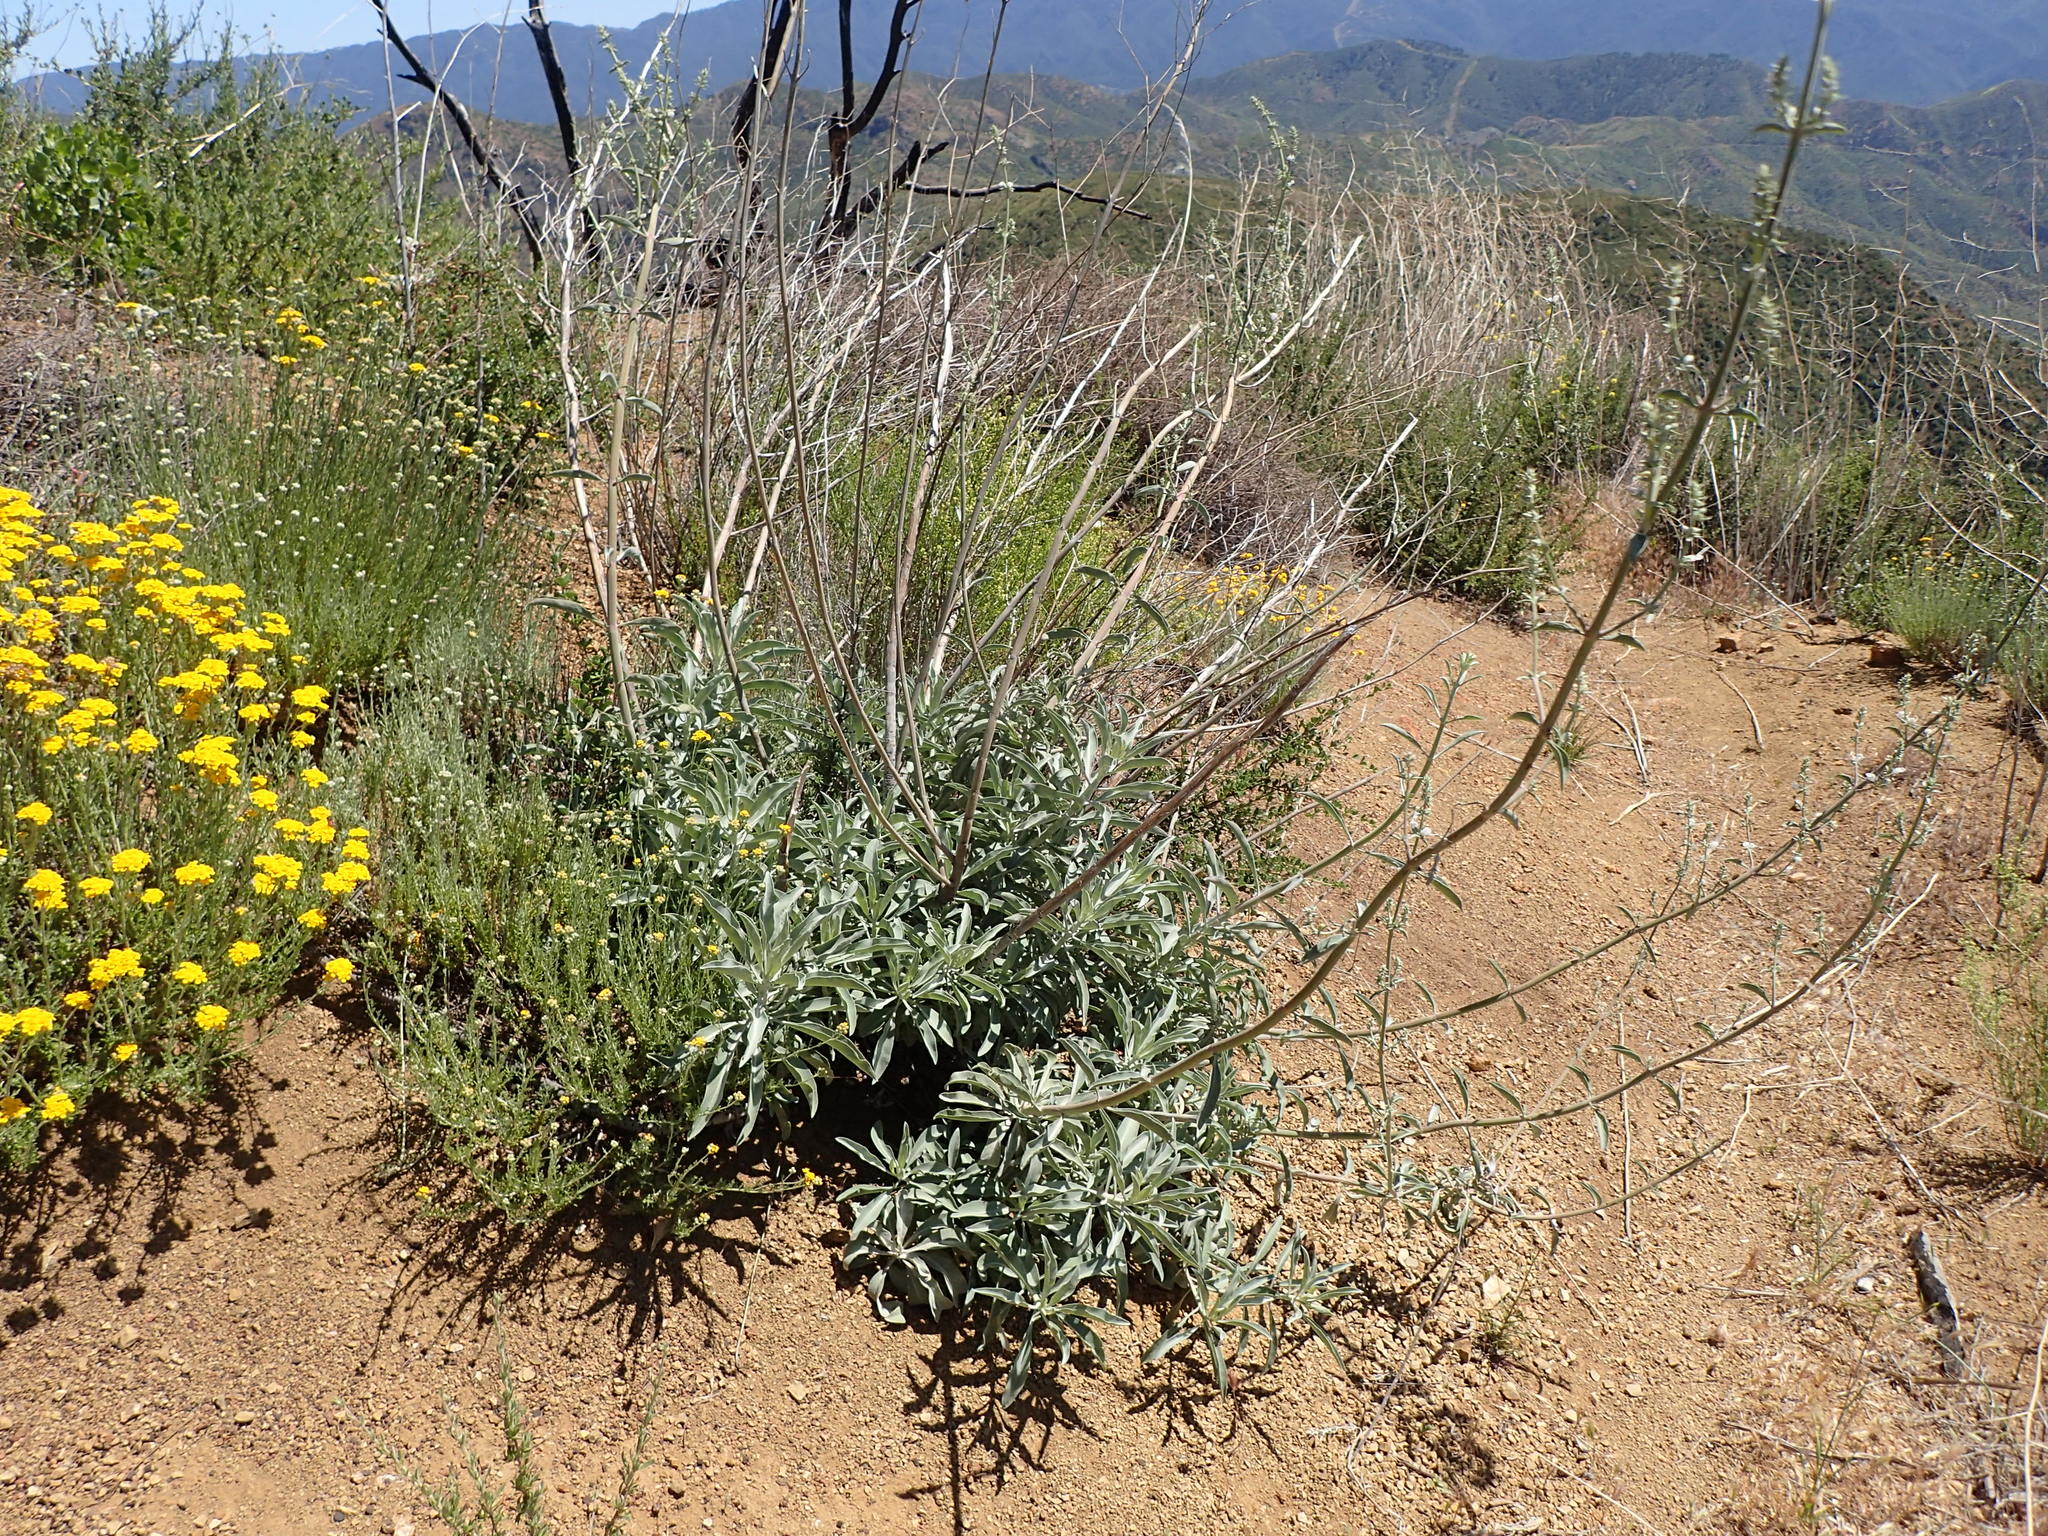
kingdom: Plantae
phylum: Tracheophyta
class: Magnoliopsida
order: Lamiales
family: Lamiaceae
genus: Salvia
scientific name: Salvia apiana
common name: White sage
